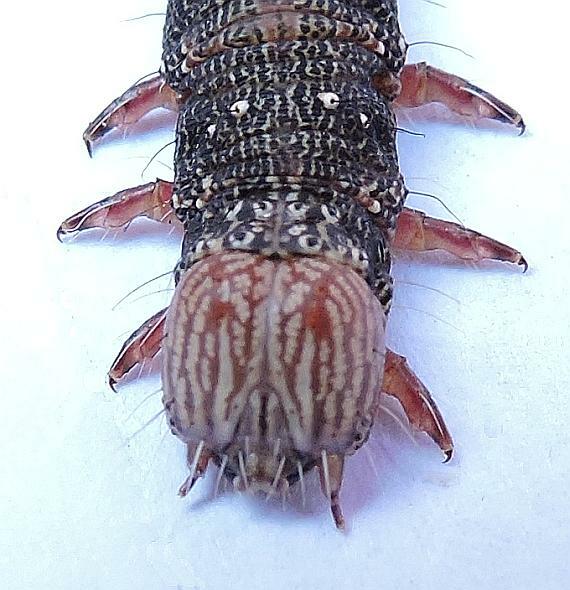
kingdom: Animalia
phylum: Arthropoda
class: Insecta
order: Lepidoptera
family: Erebidae
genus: Catocala
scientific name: Catocala palaeogama
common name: Oldwife underwing
